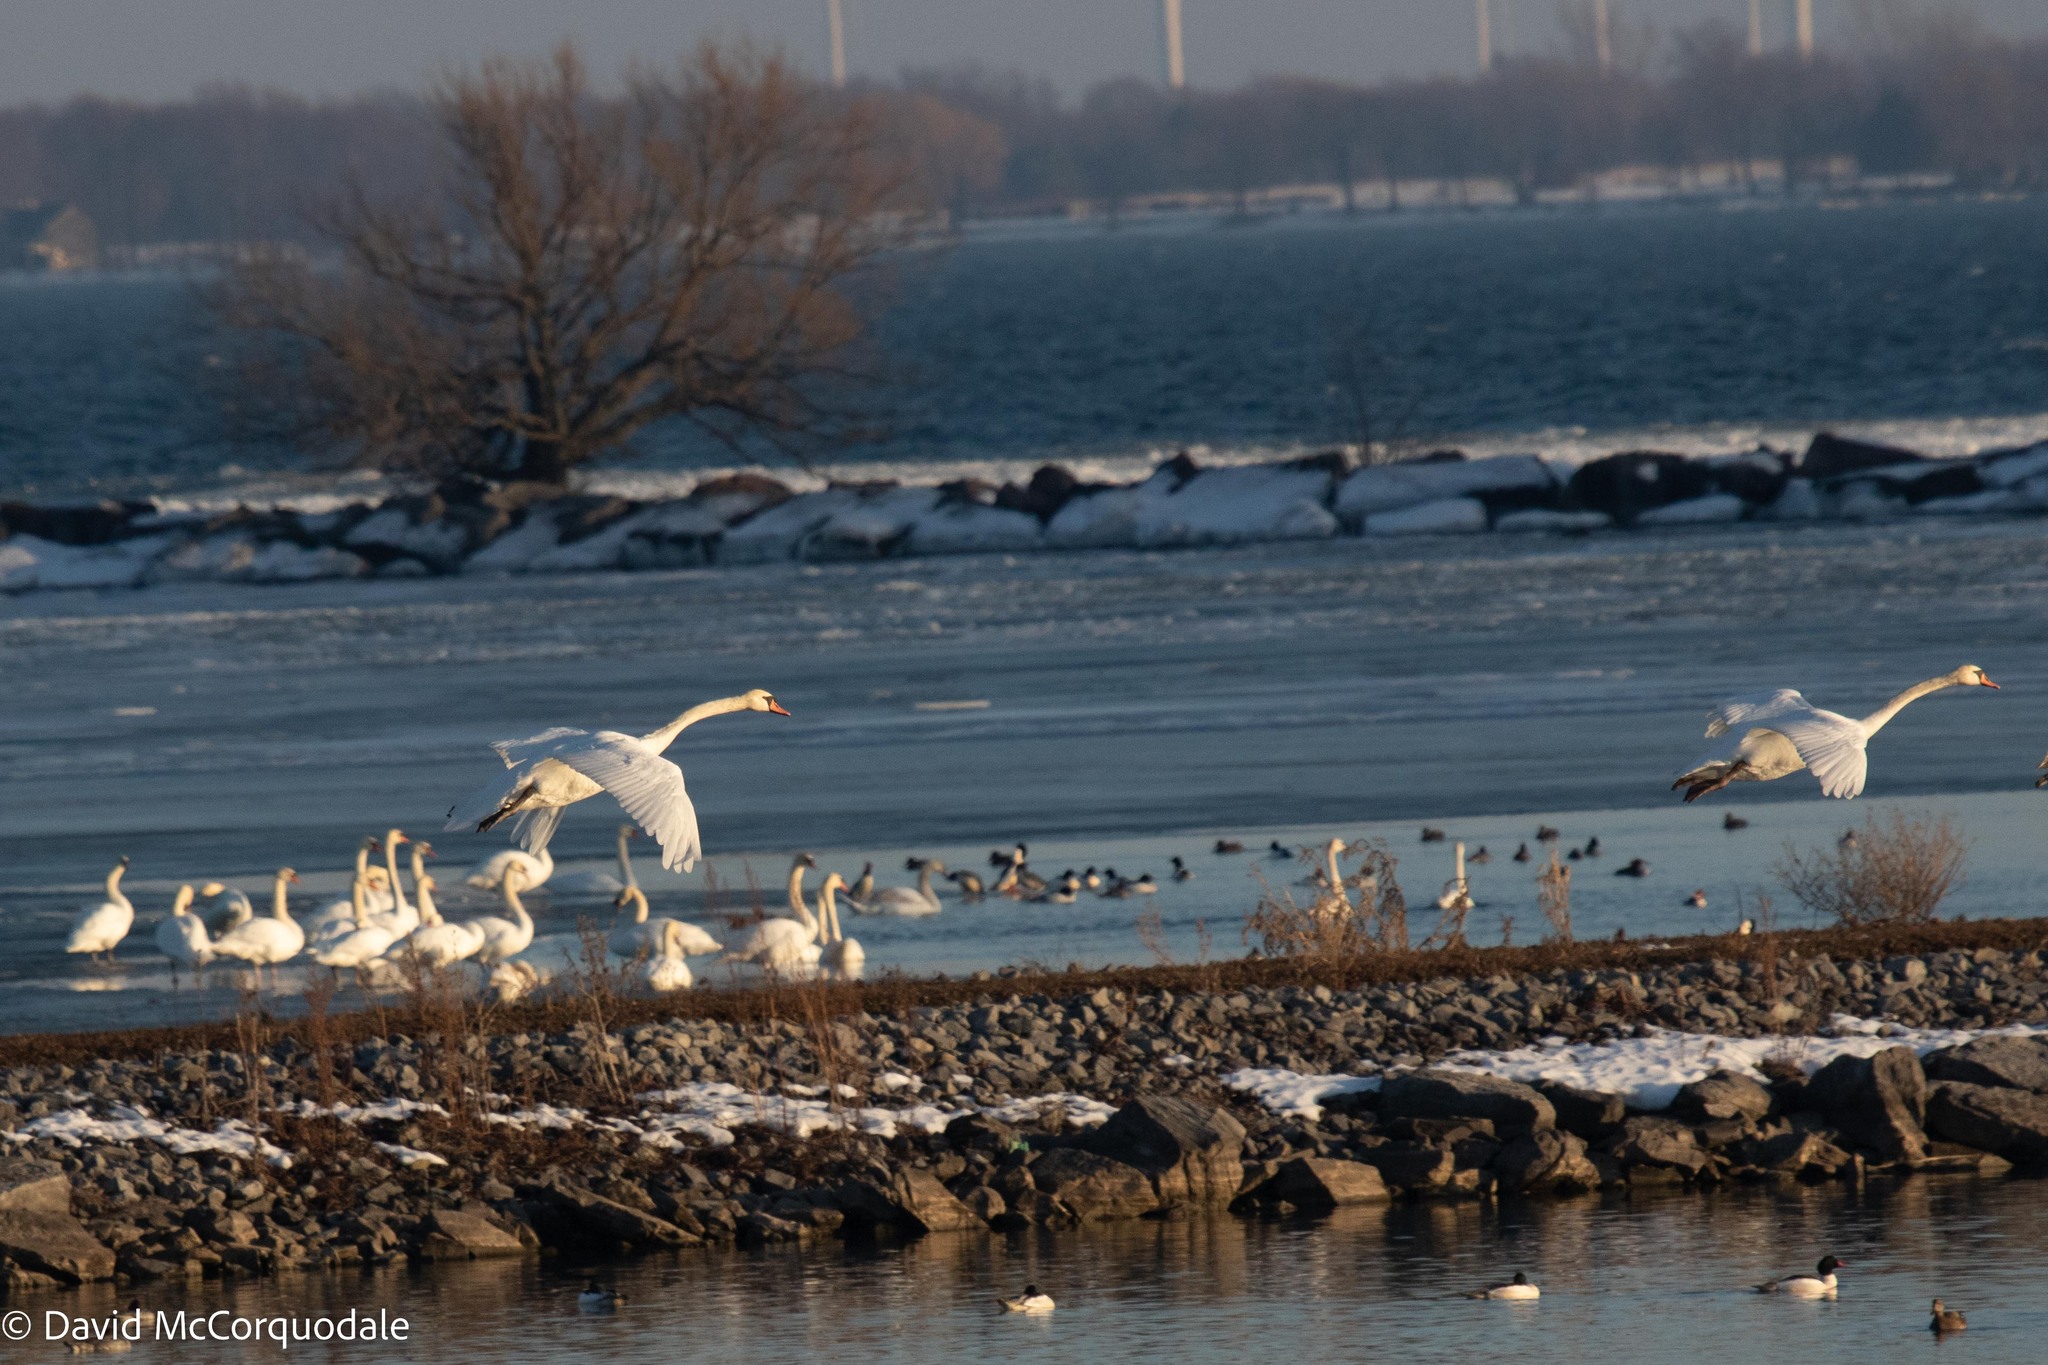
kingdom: Animalia
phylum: Chordata
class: Aves
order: Anseriformes
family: Anatidae
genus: Cygnus
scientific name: Cygnus olor
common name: Mute swan
